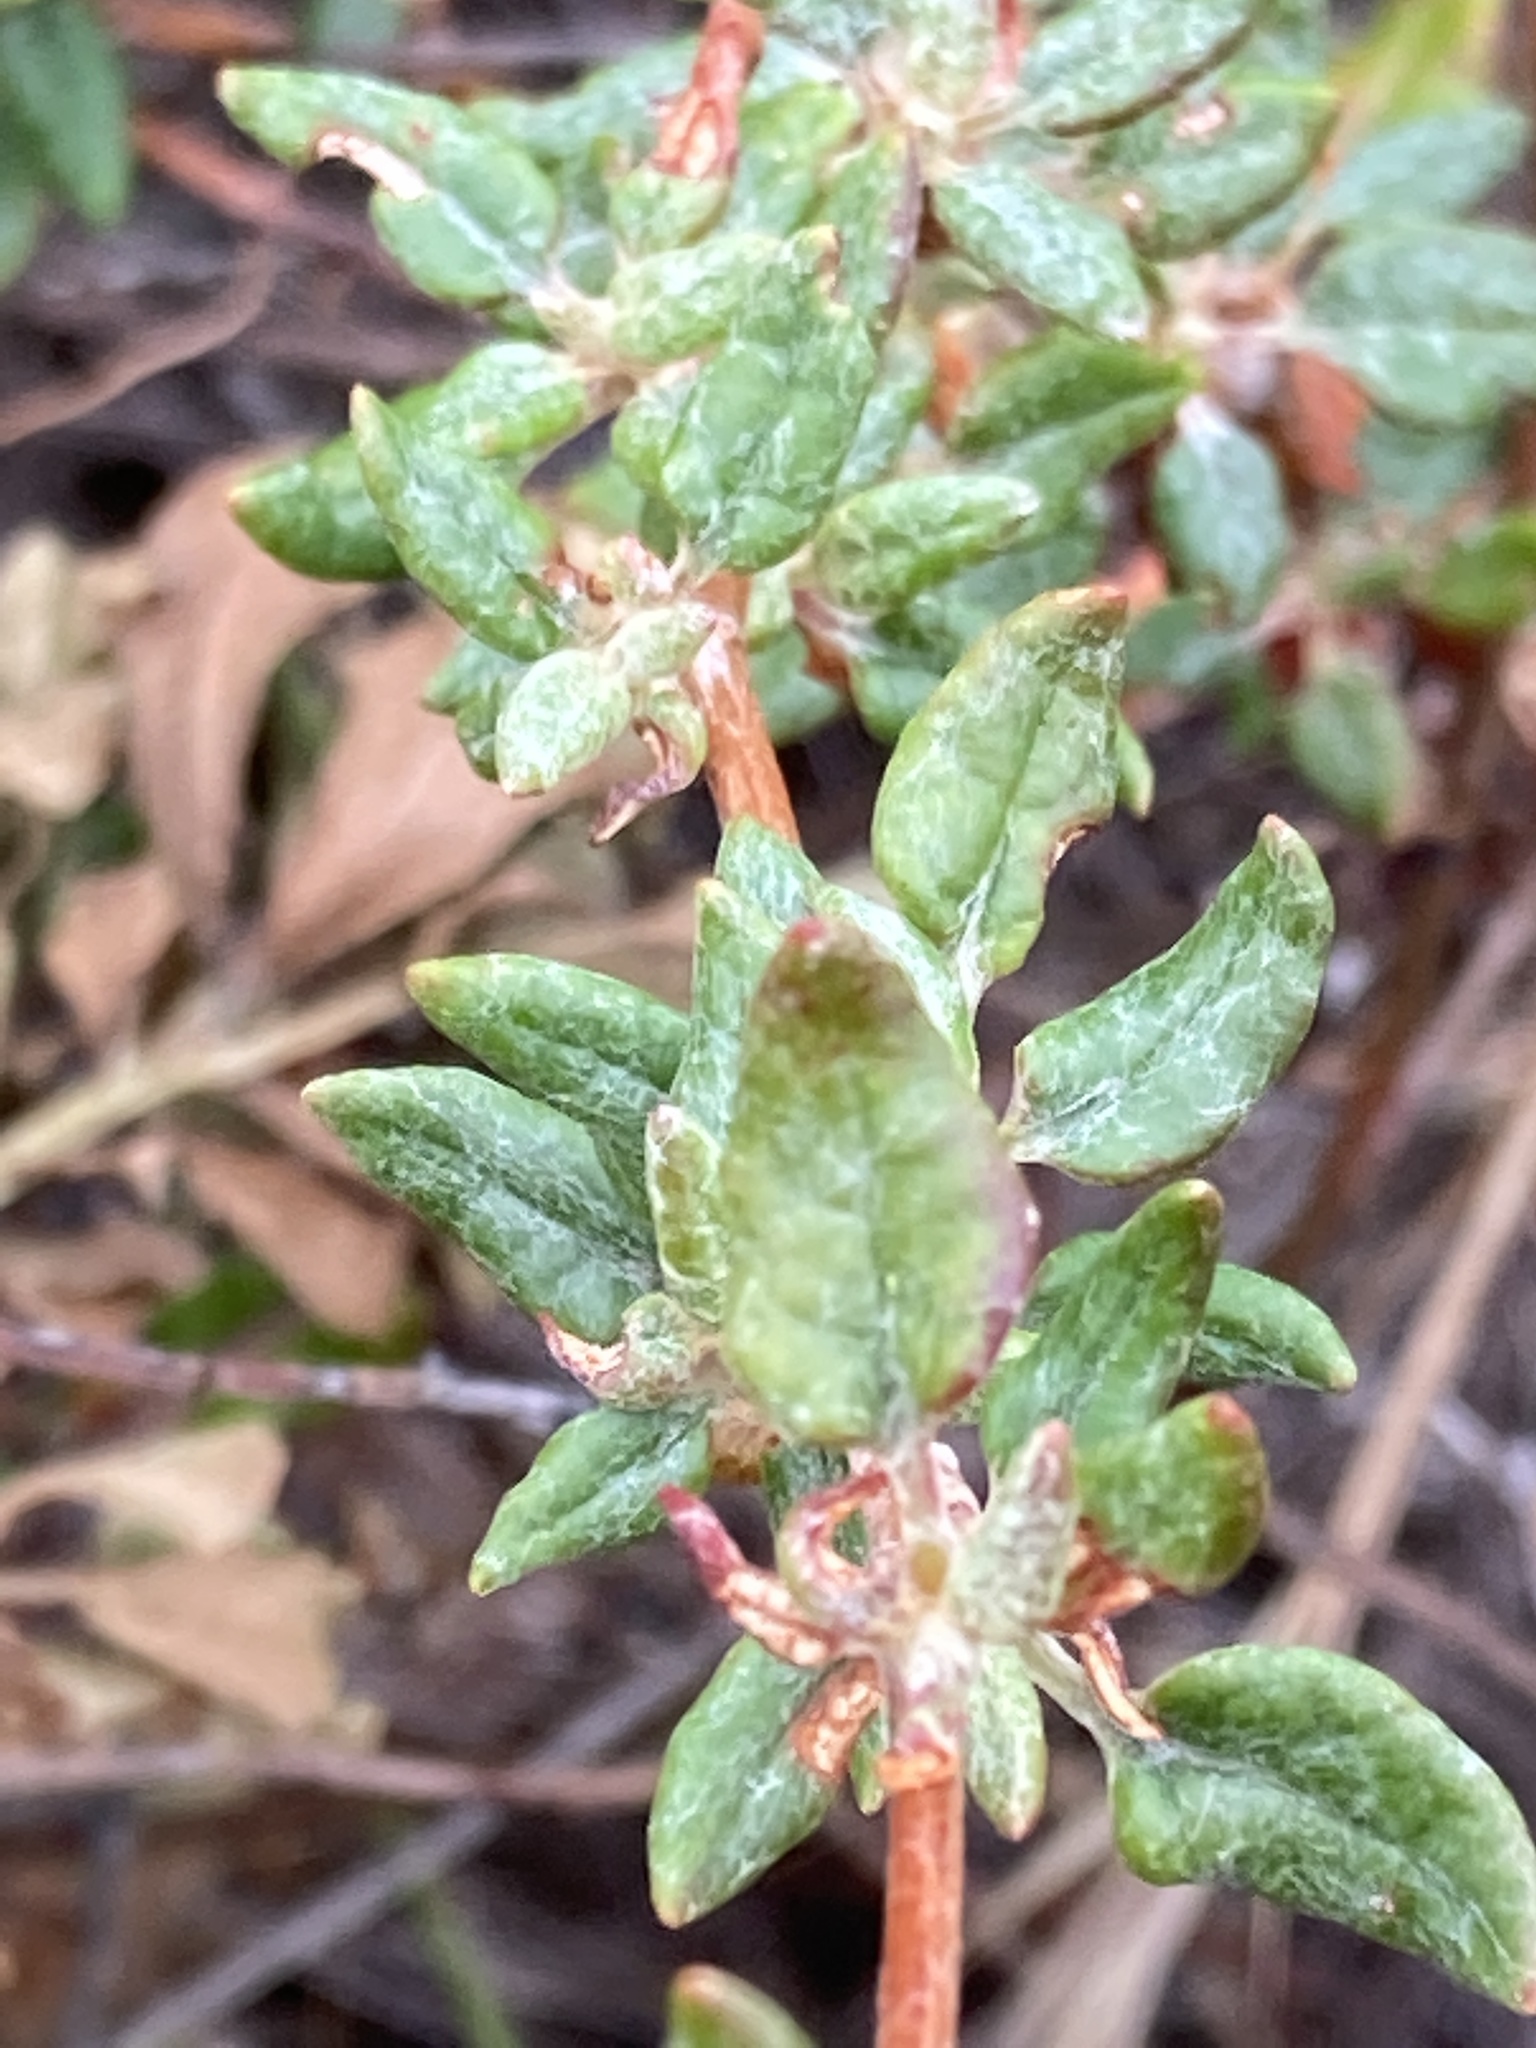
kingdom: Plantae
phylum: Tracheophyta
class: Magnoliopsida
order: Caryophyllales
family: Polygonaceae
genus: Eriogonum
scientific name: Eriogonum parvifolium
